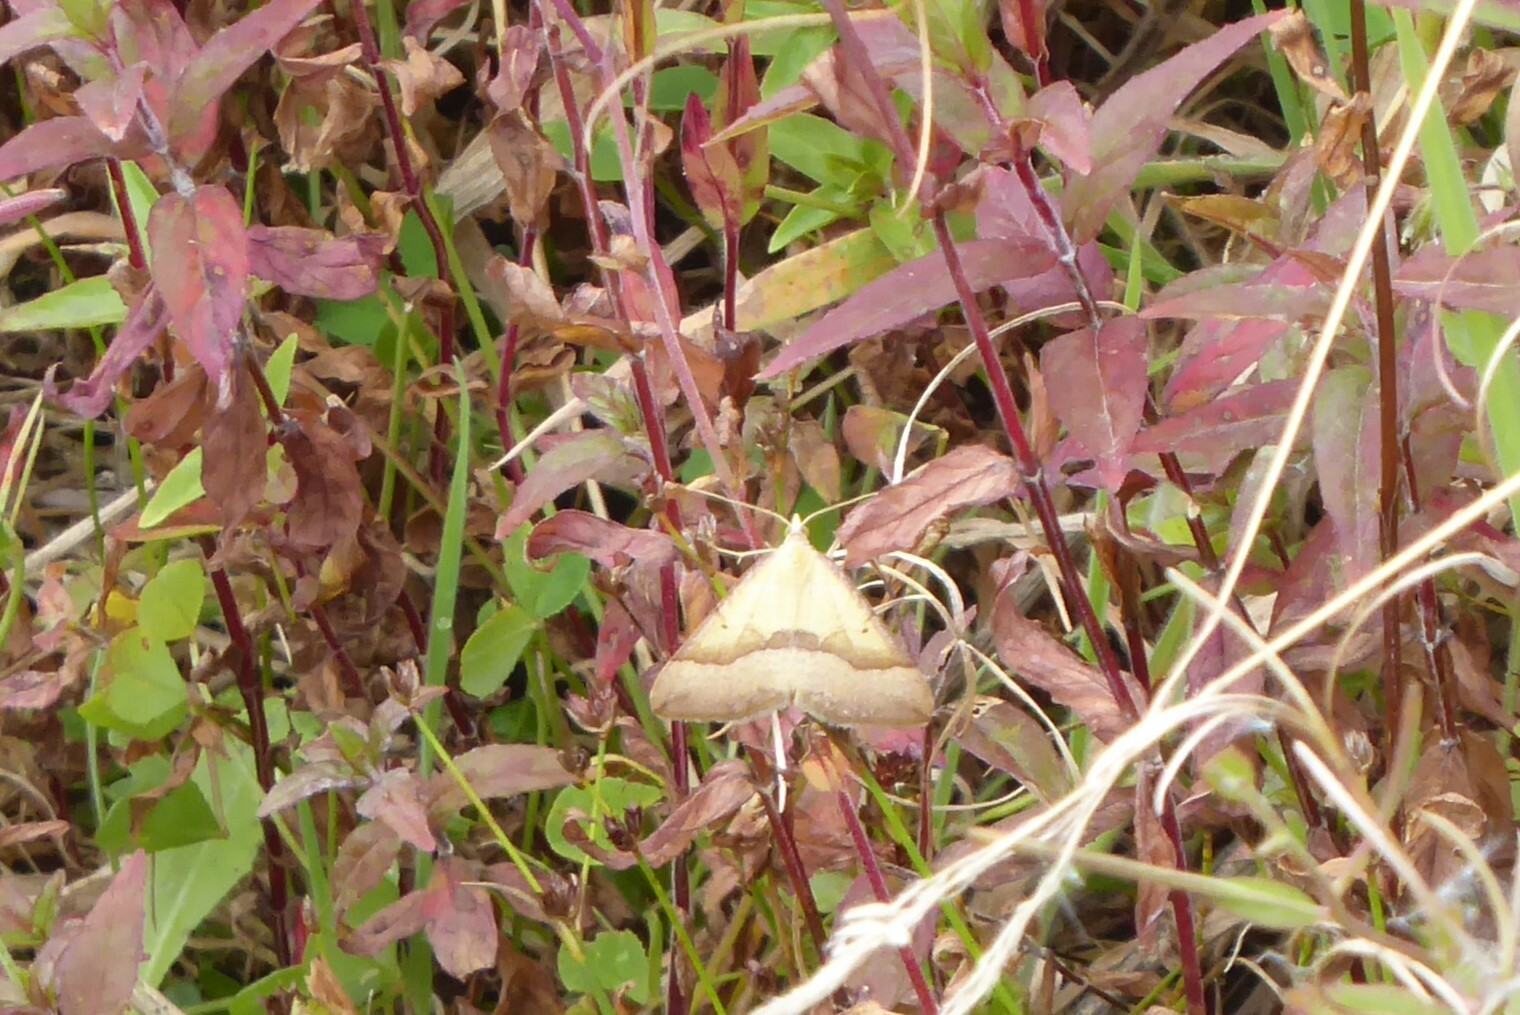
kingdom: Animalia
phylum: Arthropoda
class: Insecta
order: Lepidoptera
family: Geometridae
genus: Anachloris
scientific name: Anachloris subochraria
